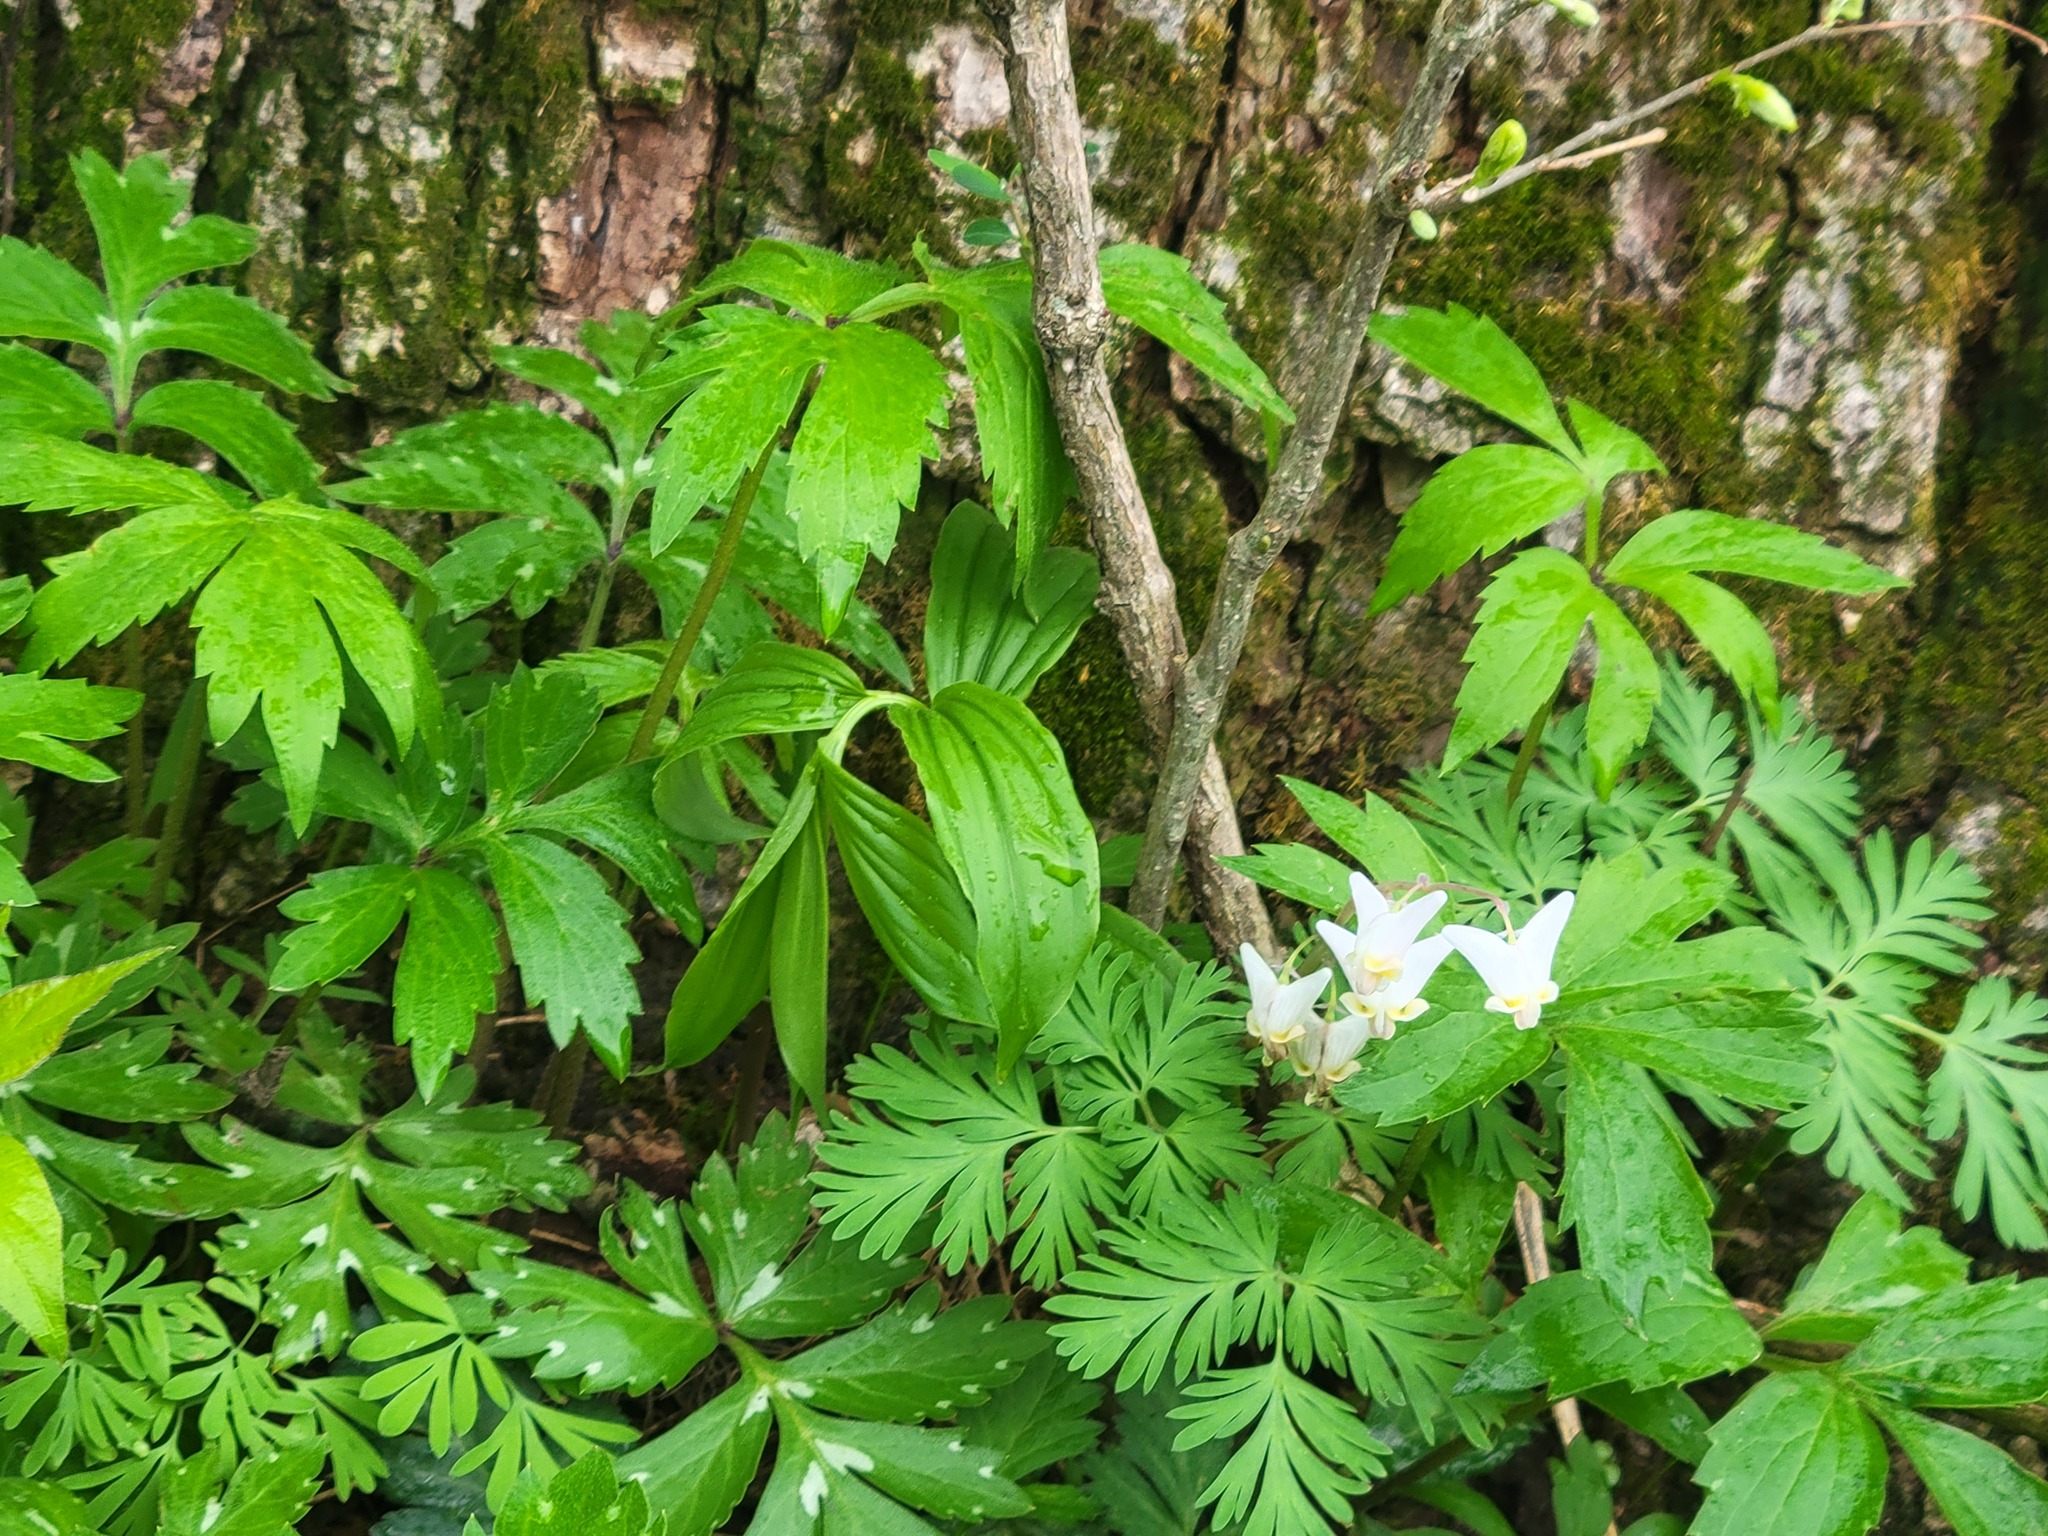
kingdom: Plantae
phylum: Tracheophyta
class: Magnoliopsida
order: Ranunculales
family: Papaveraceae
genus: Dicentra
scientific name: Dicentra cucullaria
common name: Dutchman's breeches
